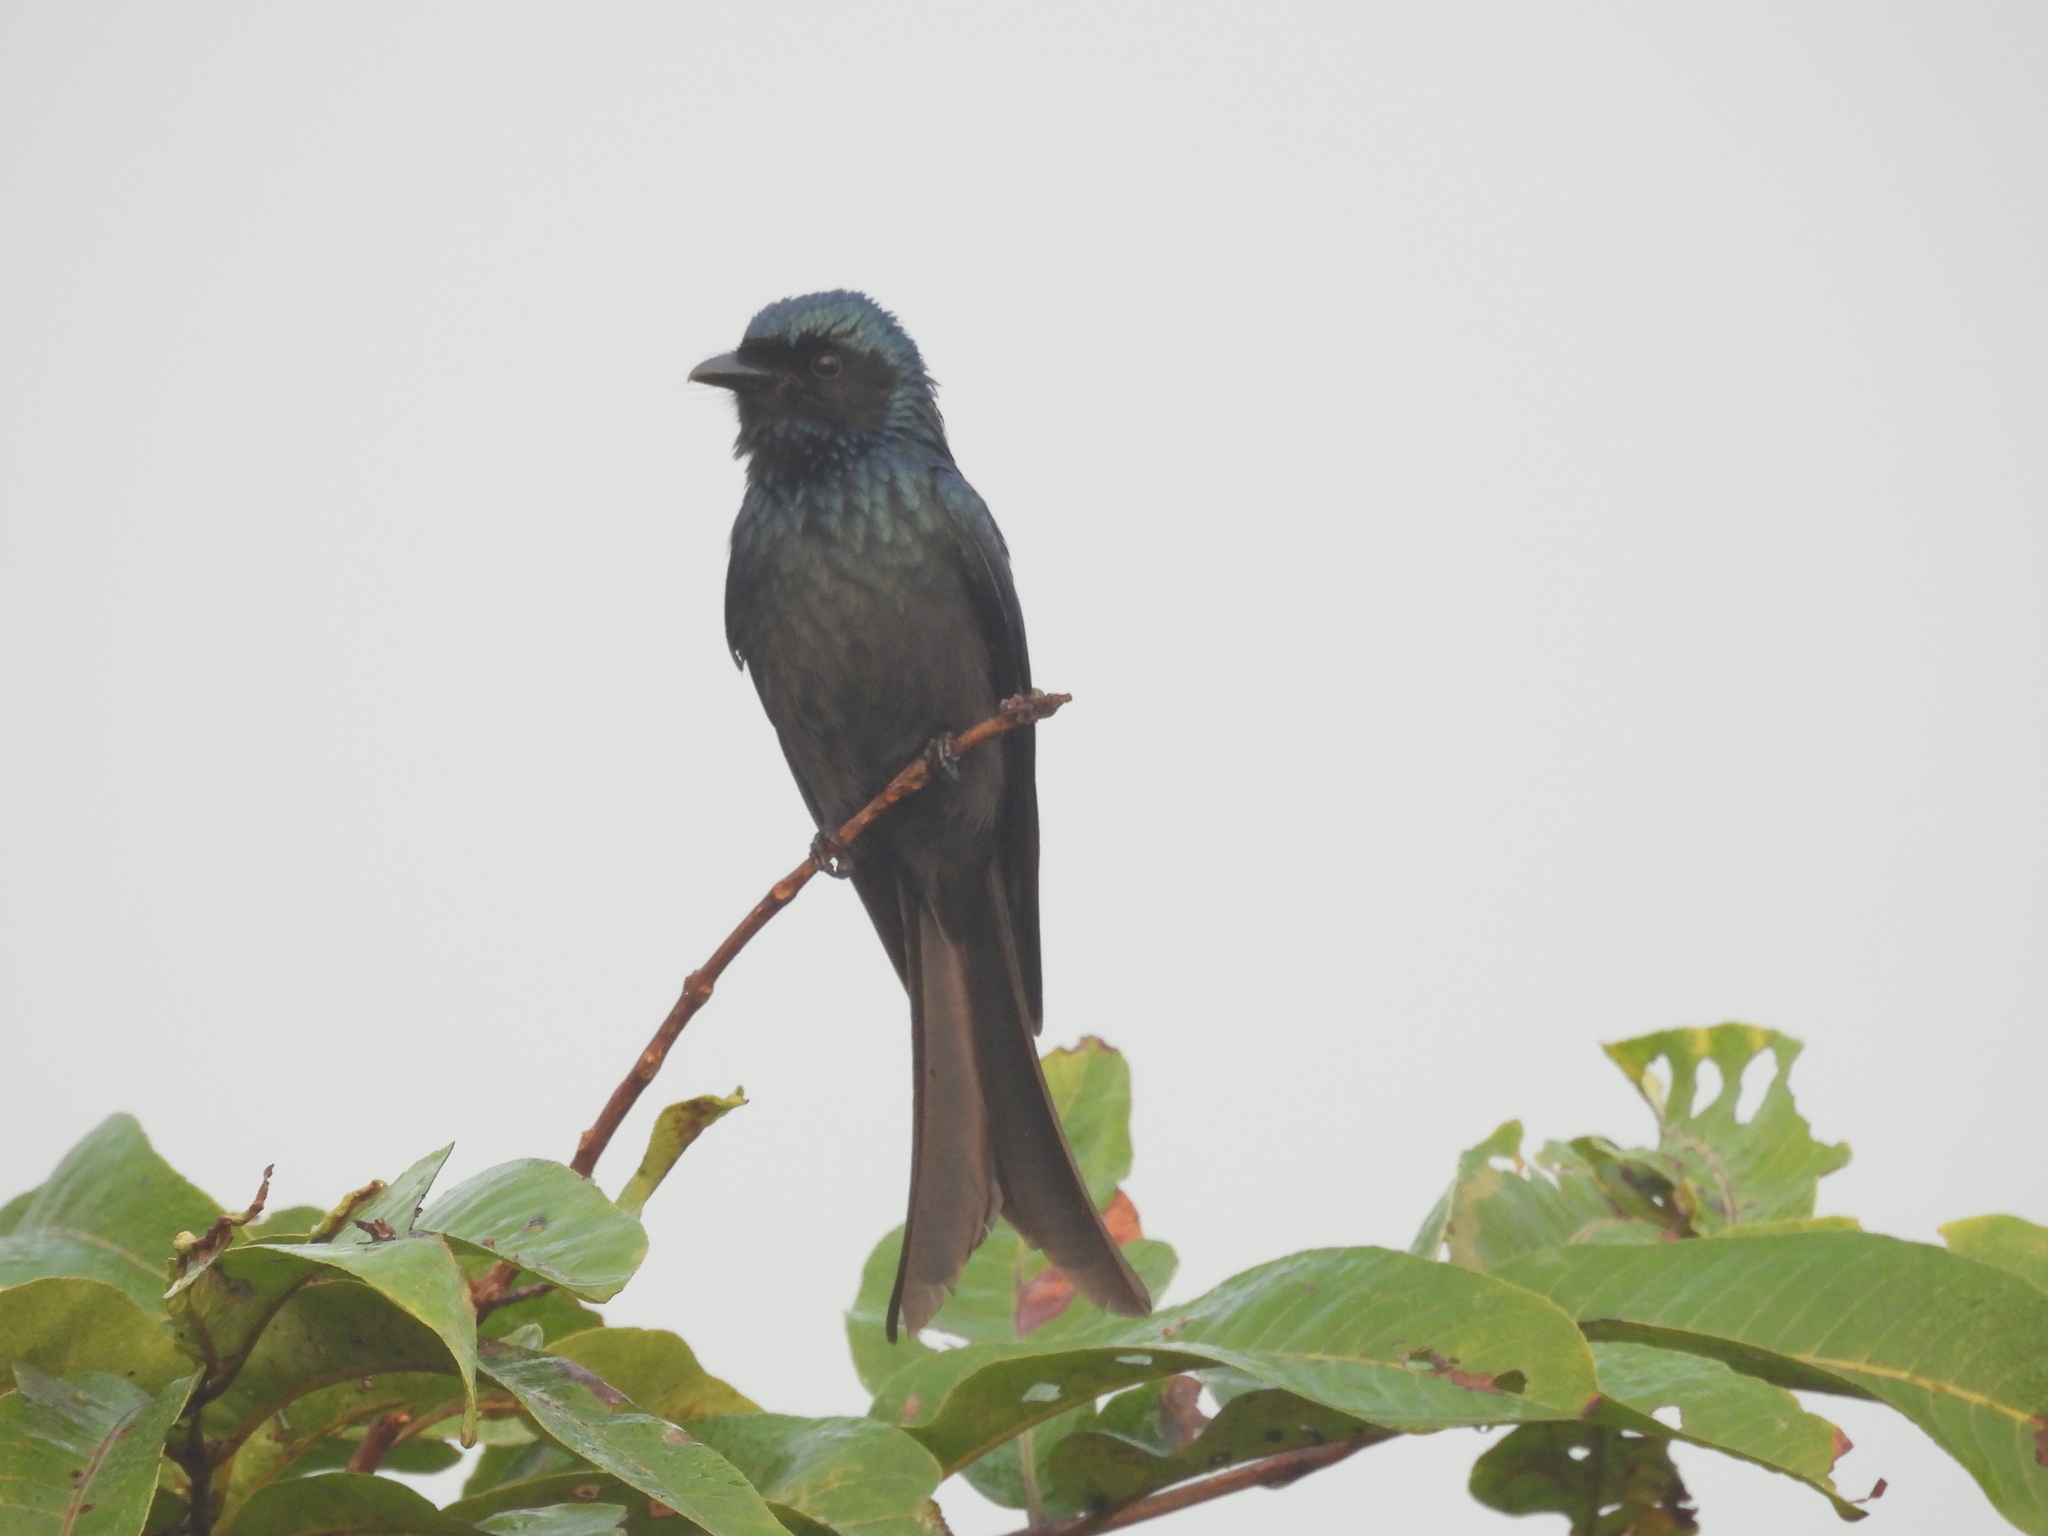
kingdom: Animalia
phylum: Chordata
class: Aves
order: Passeriformes
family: Dicruridae
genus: Dicrurus
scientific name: Dicrurus aeneus
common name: Bronzed drongo
